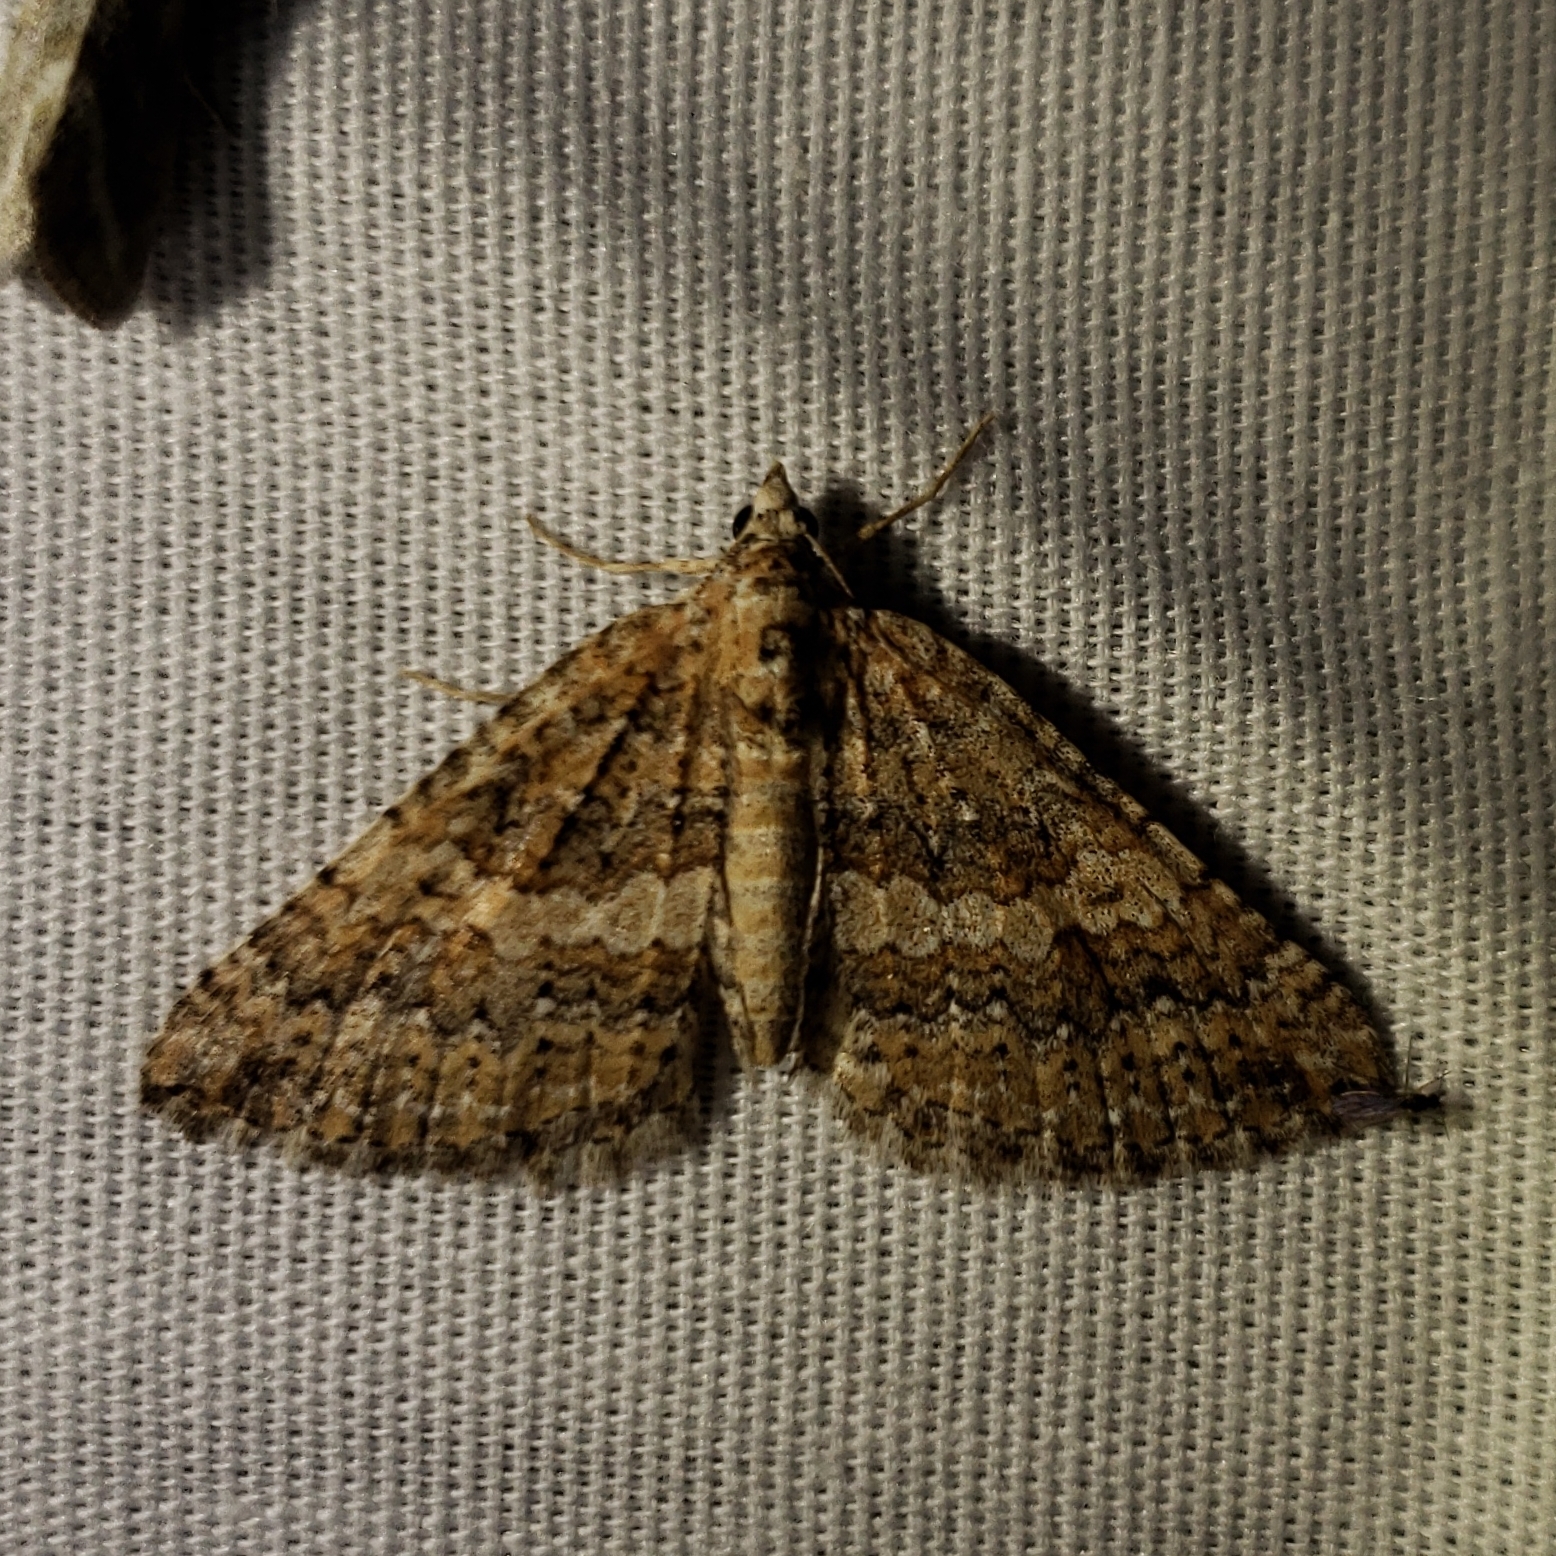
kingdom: Animalia
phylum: Arthropoda
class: Insecta
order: Lepidoptera
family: Geometridae
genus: Archirhoe
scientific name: Archirhoe neomexicana
